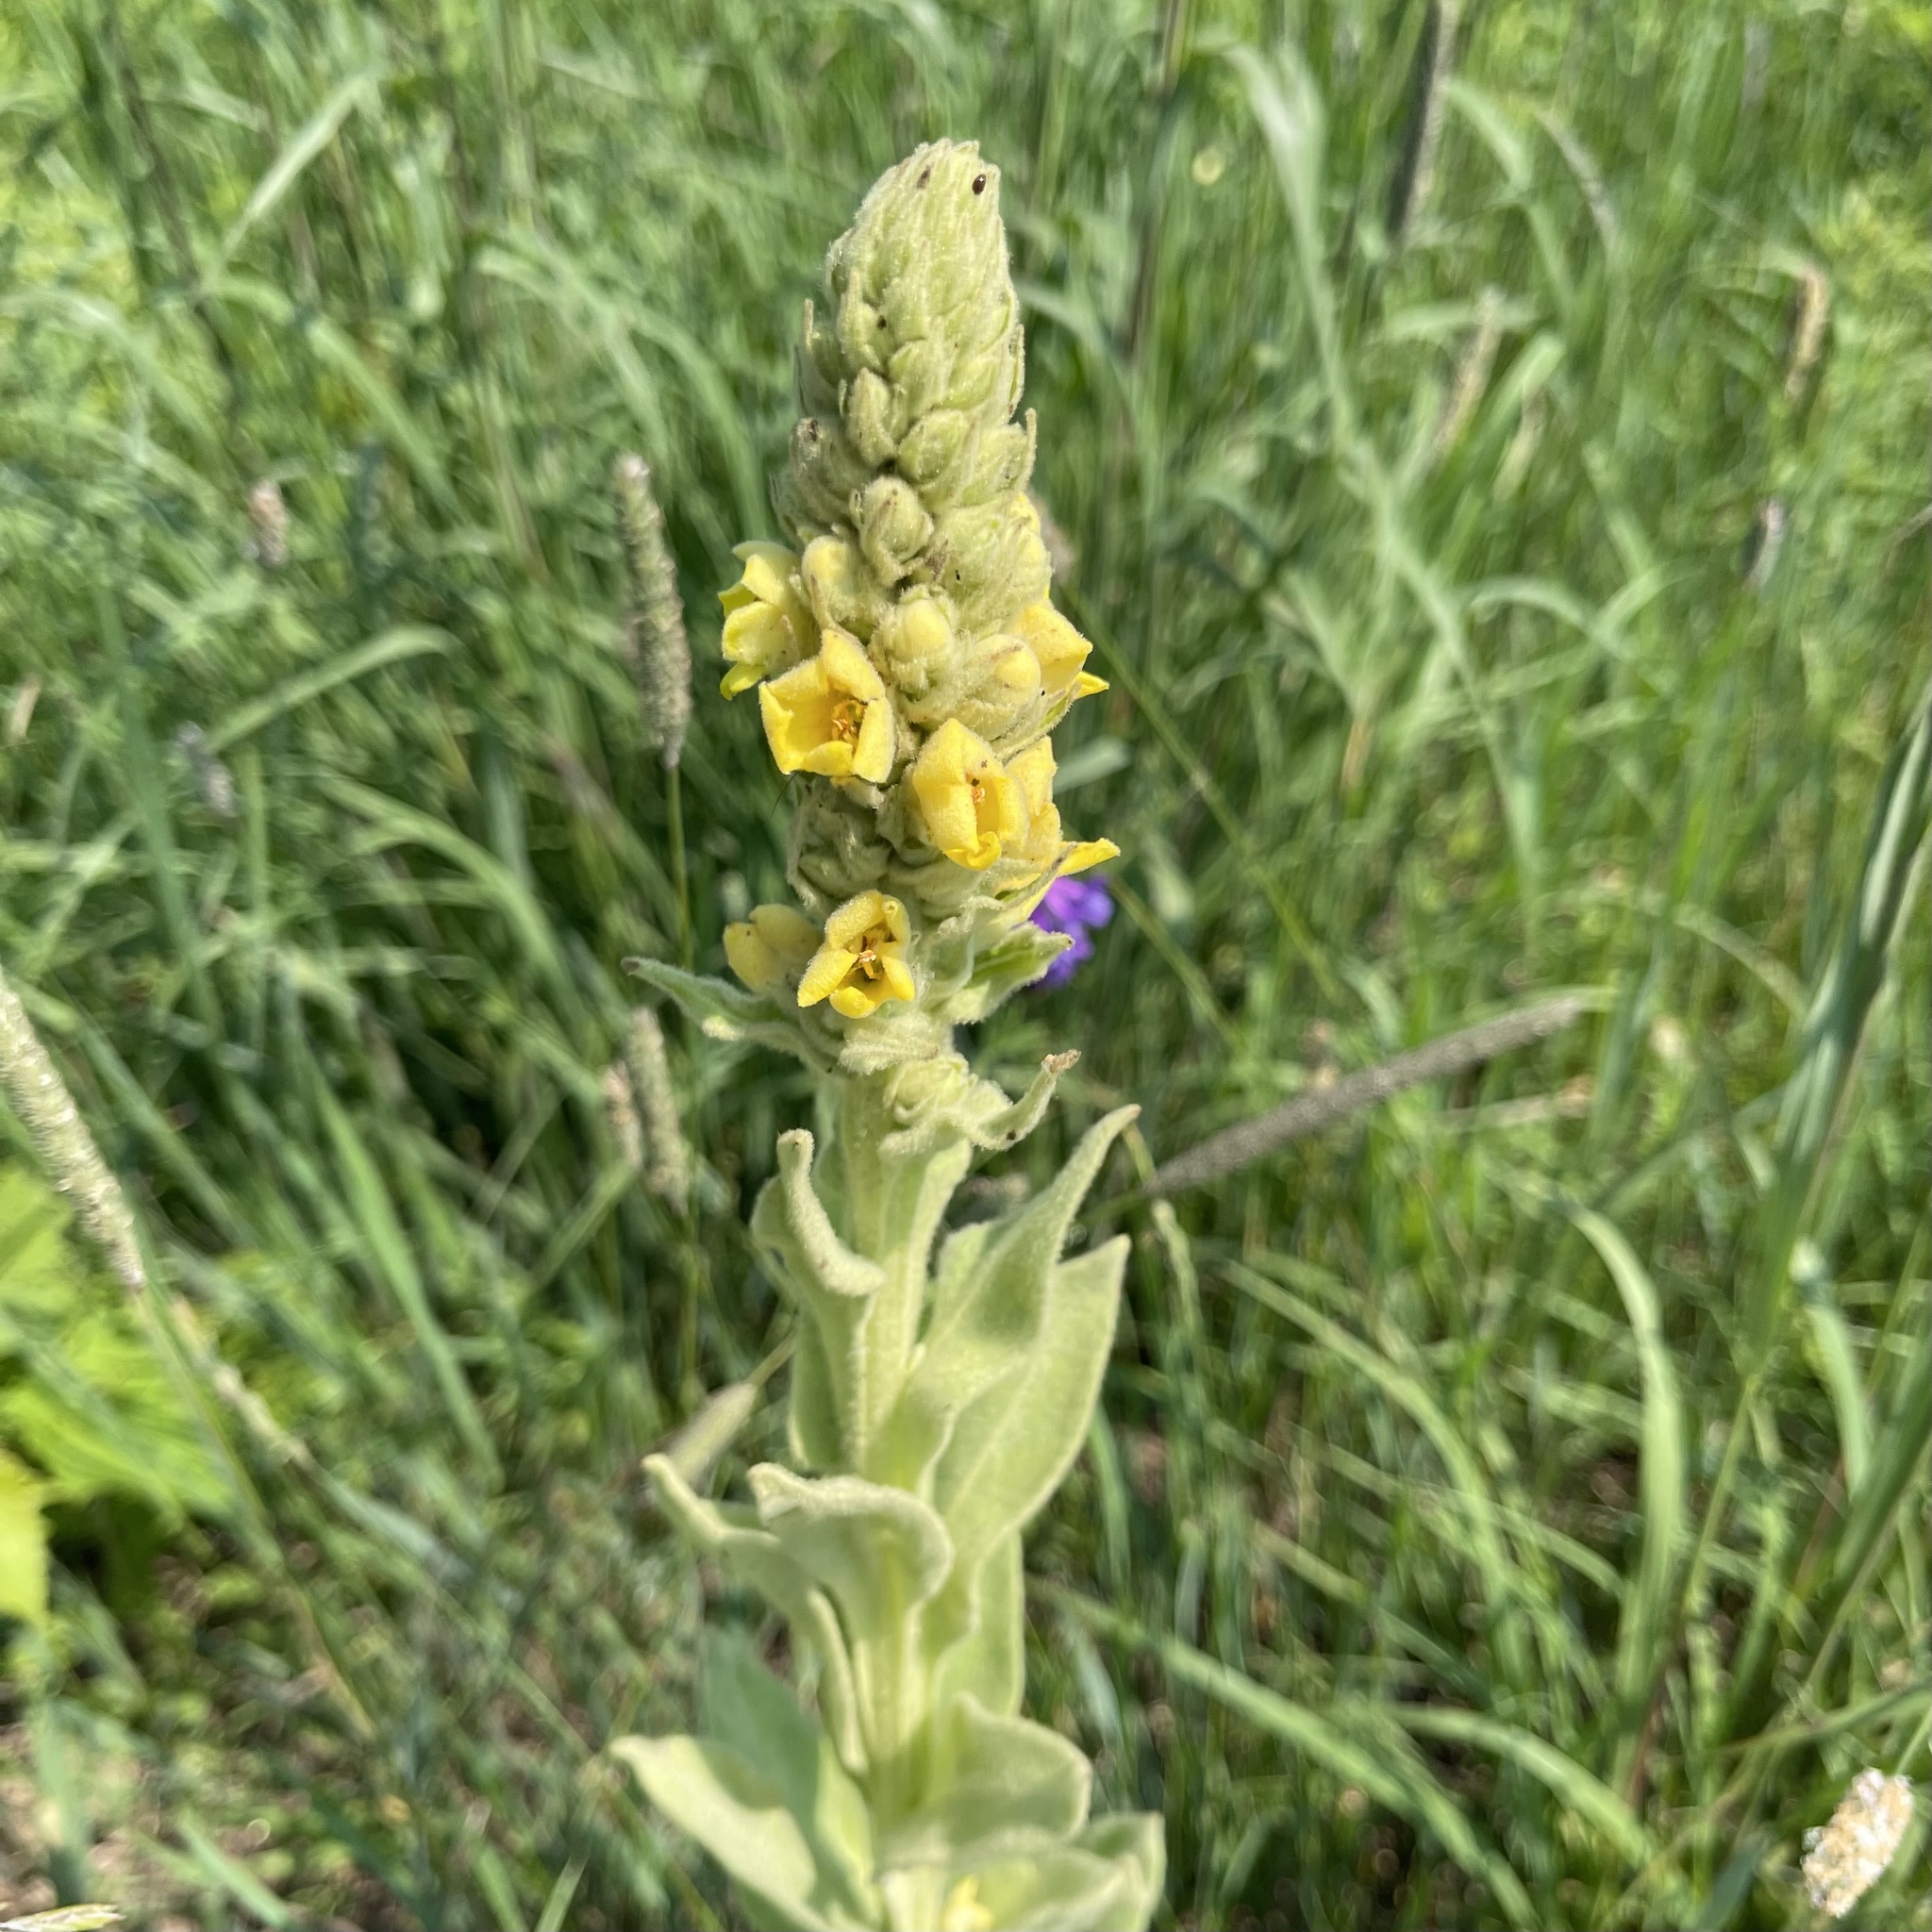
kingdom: Plantae
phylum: Tracheophyta
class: Magnoliopsida
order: Lamiales
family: Scrophulariaceae
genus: Verbascum
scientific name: Verbascum thapsus
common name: Common mullein
